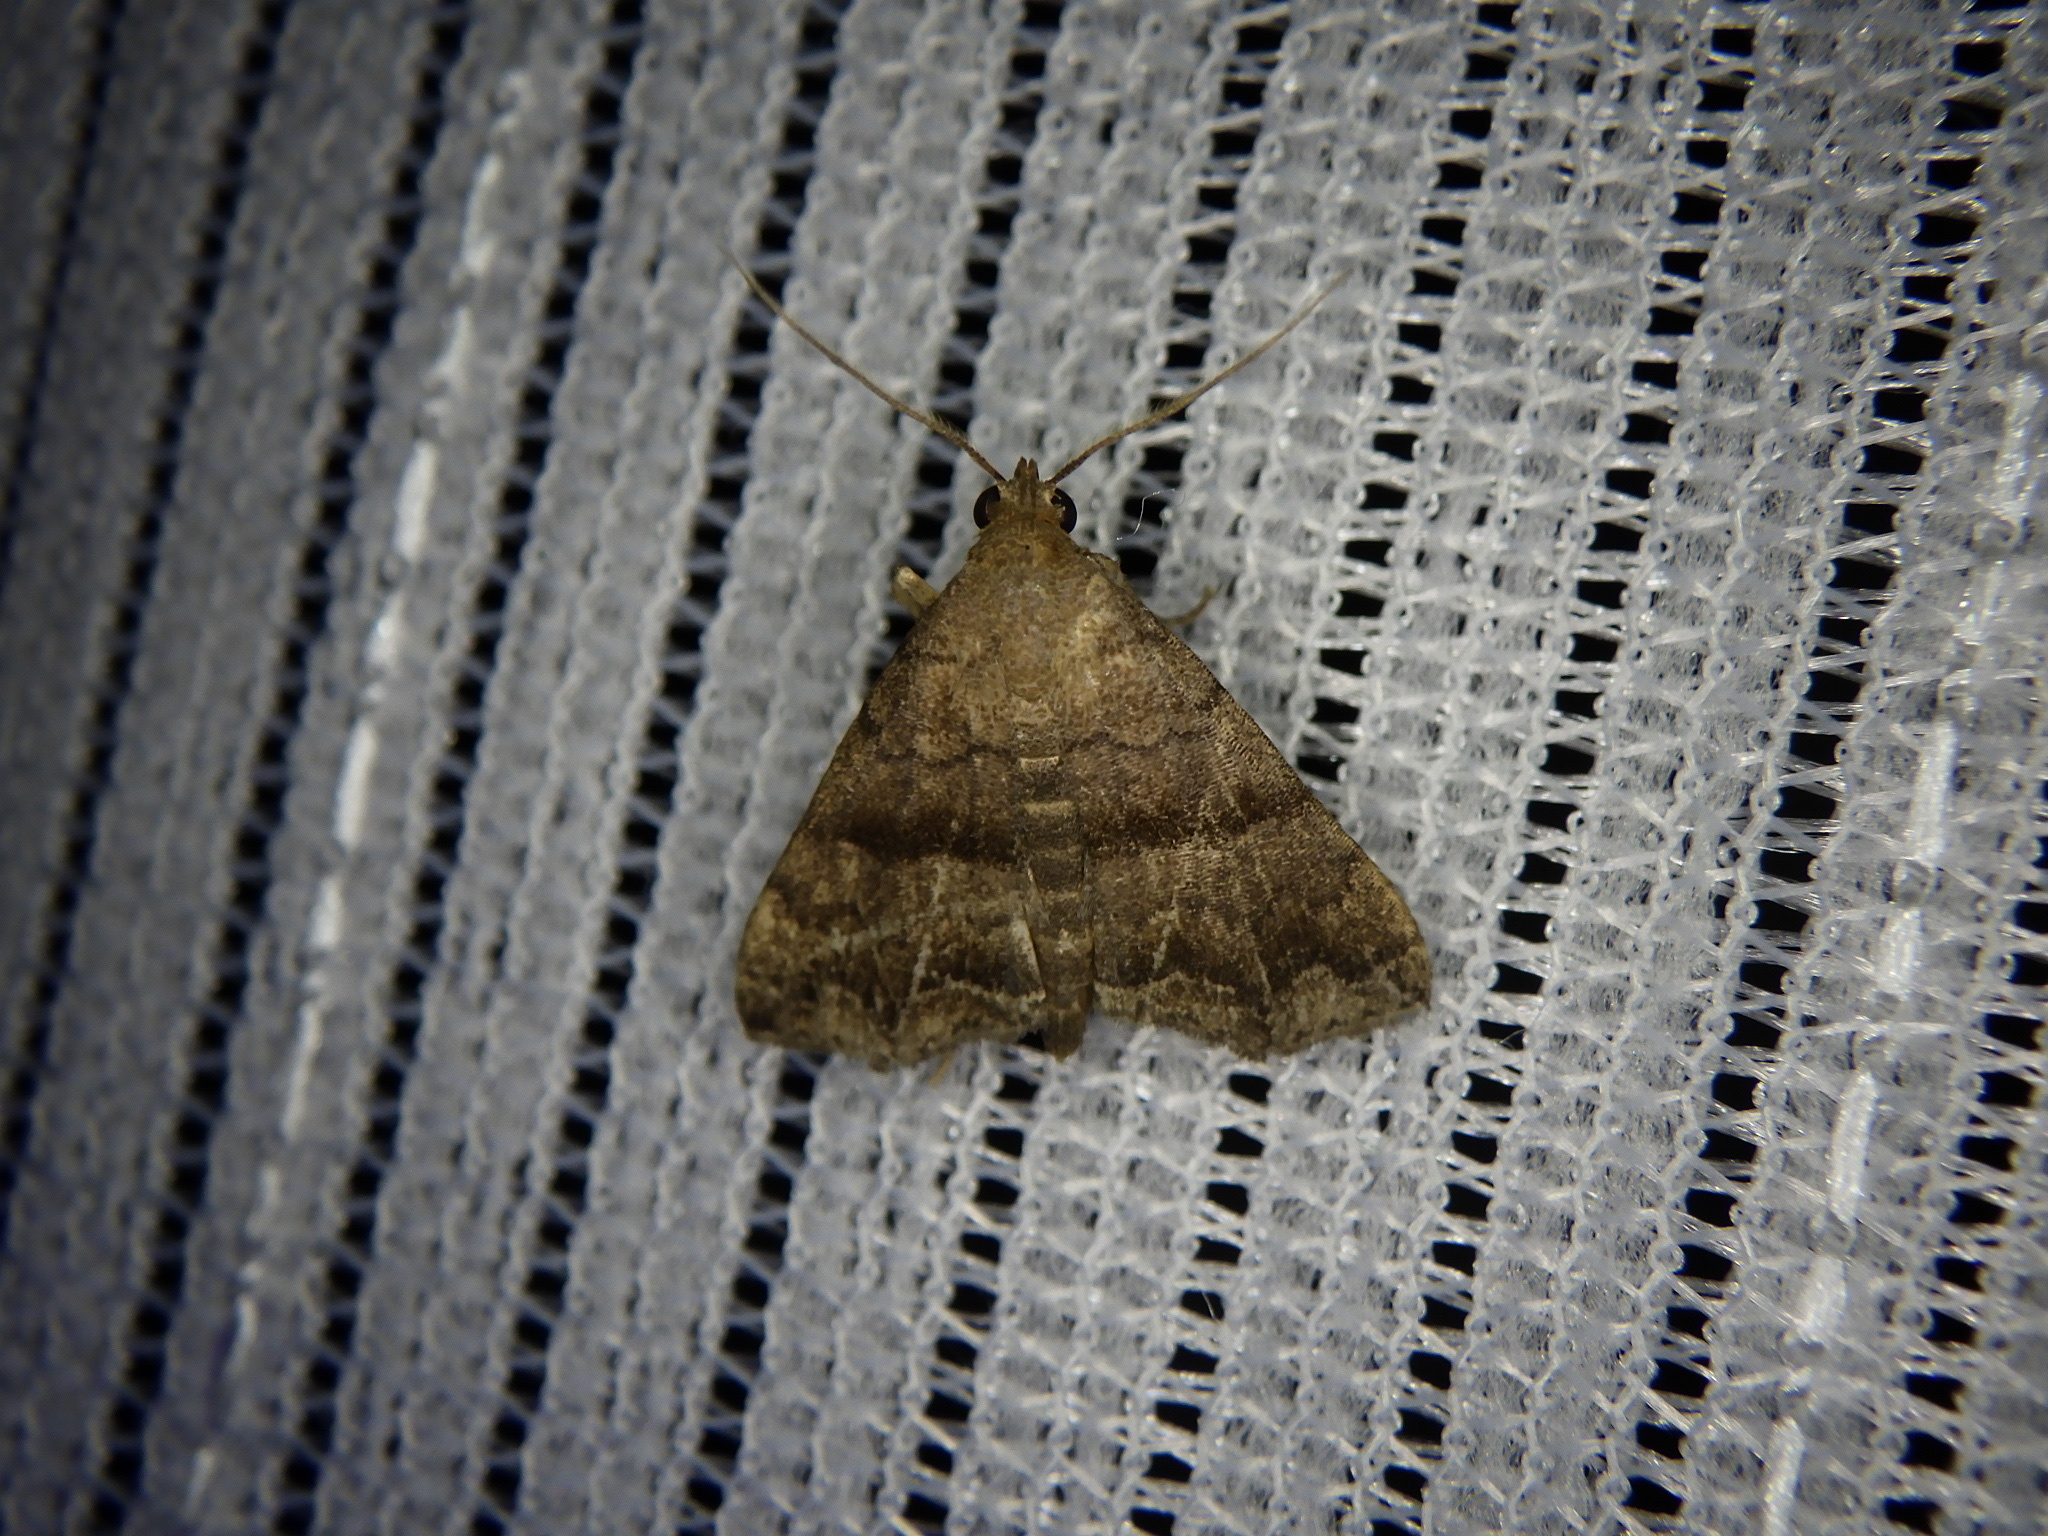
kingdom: Animalia
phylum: Arthropoda
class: Insecta
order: Lepidoptera
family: Erebidae
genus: Polypogon
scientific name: Polypogon Hipoepa fractalis
